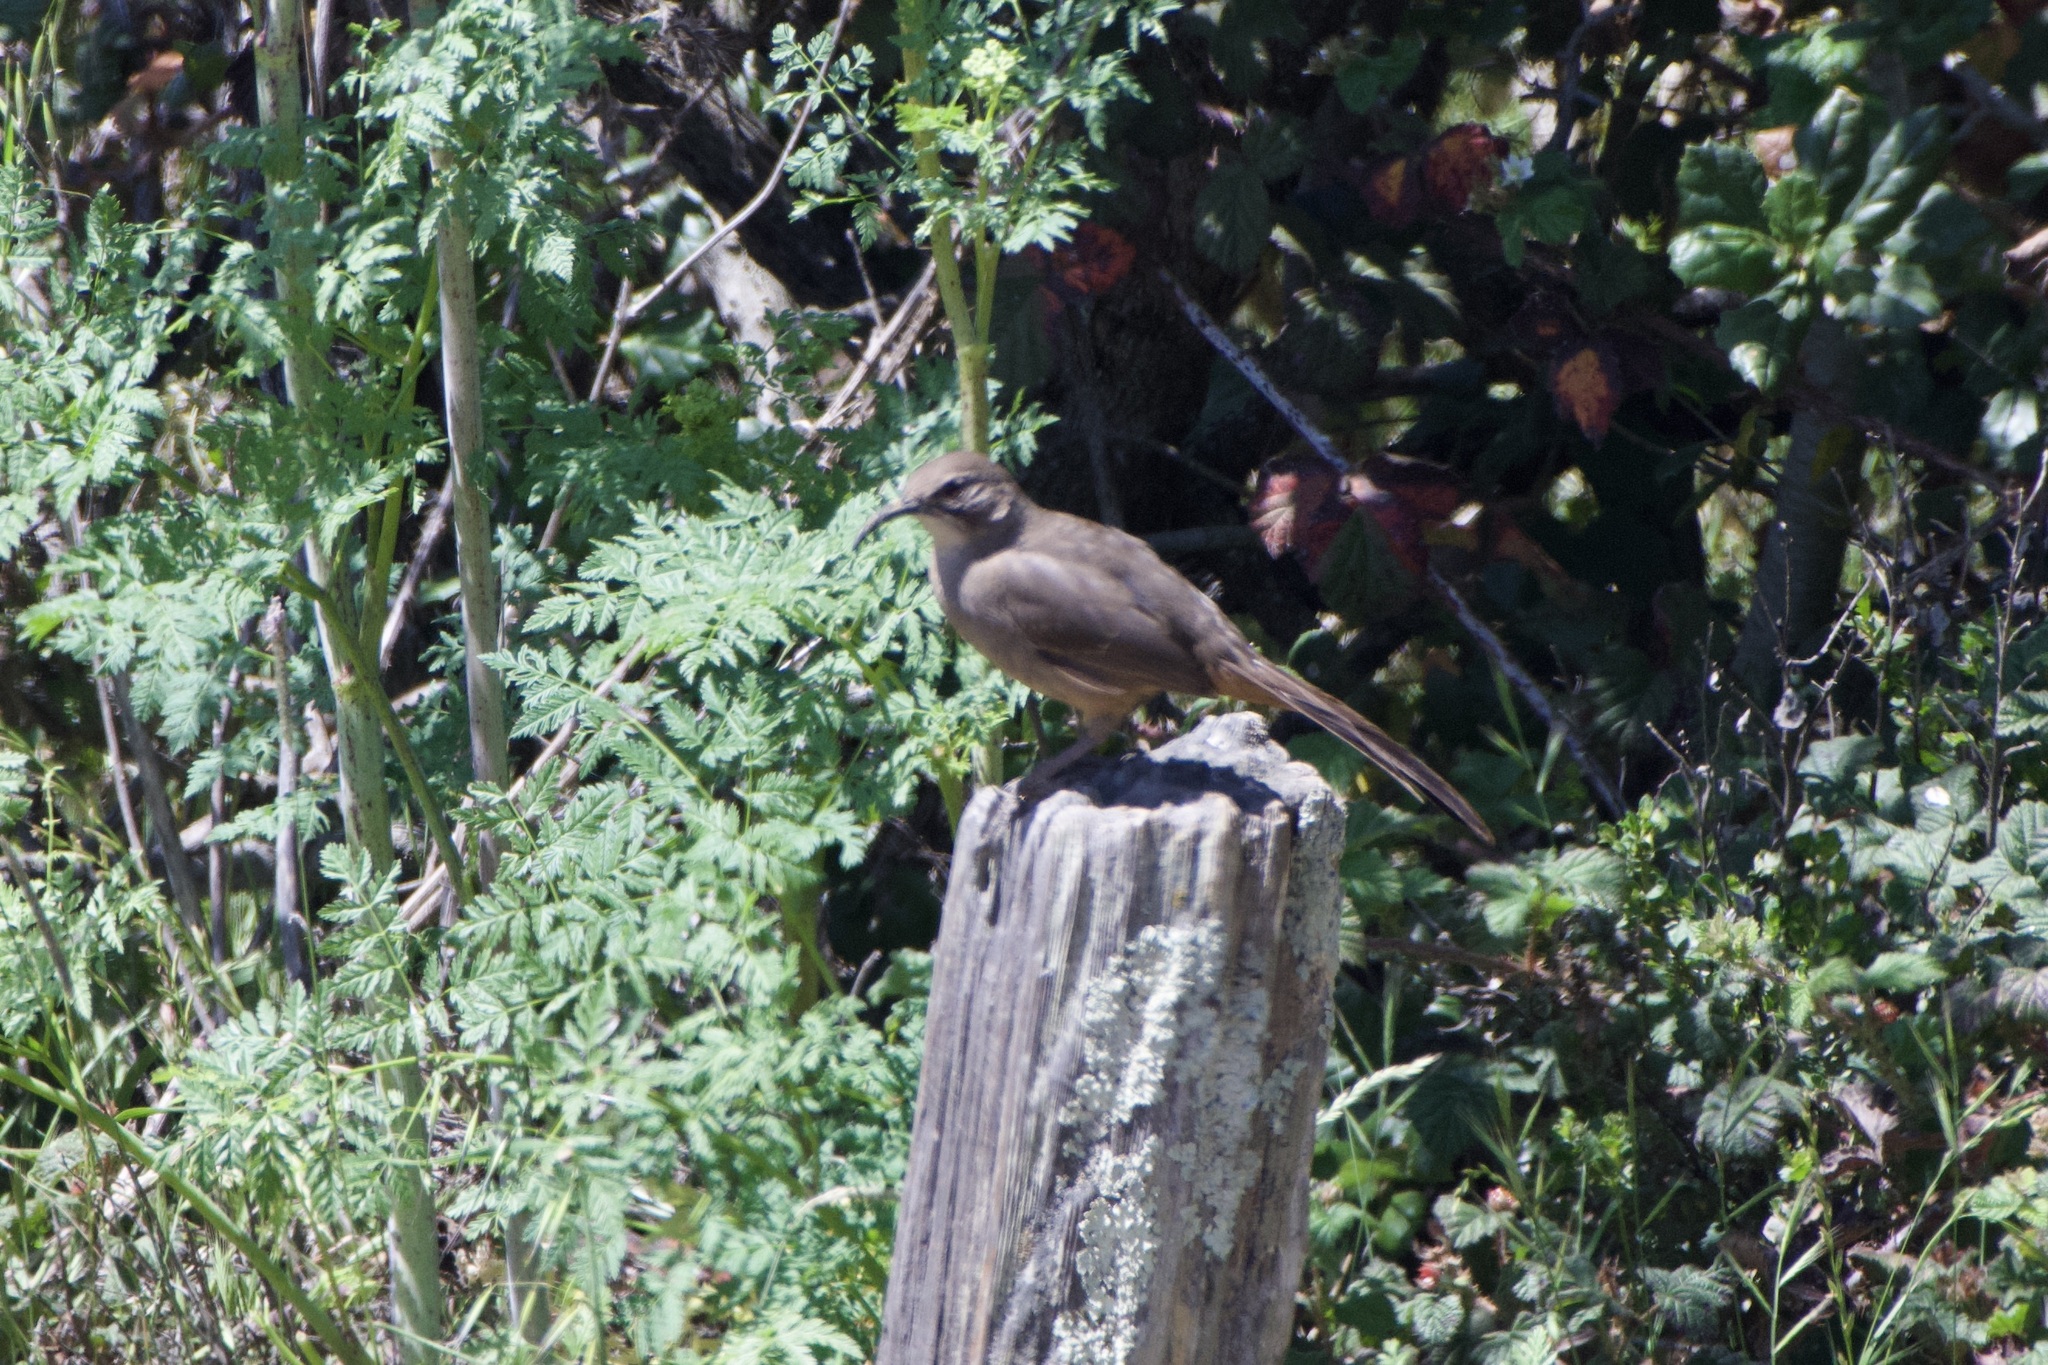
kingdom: Animalia
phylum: Chordata
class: Aves
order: Passeriformes
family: Mimidae
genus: Toxostoma
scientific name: Toxostoma redivivum
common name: California thrasher
